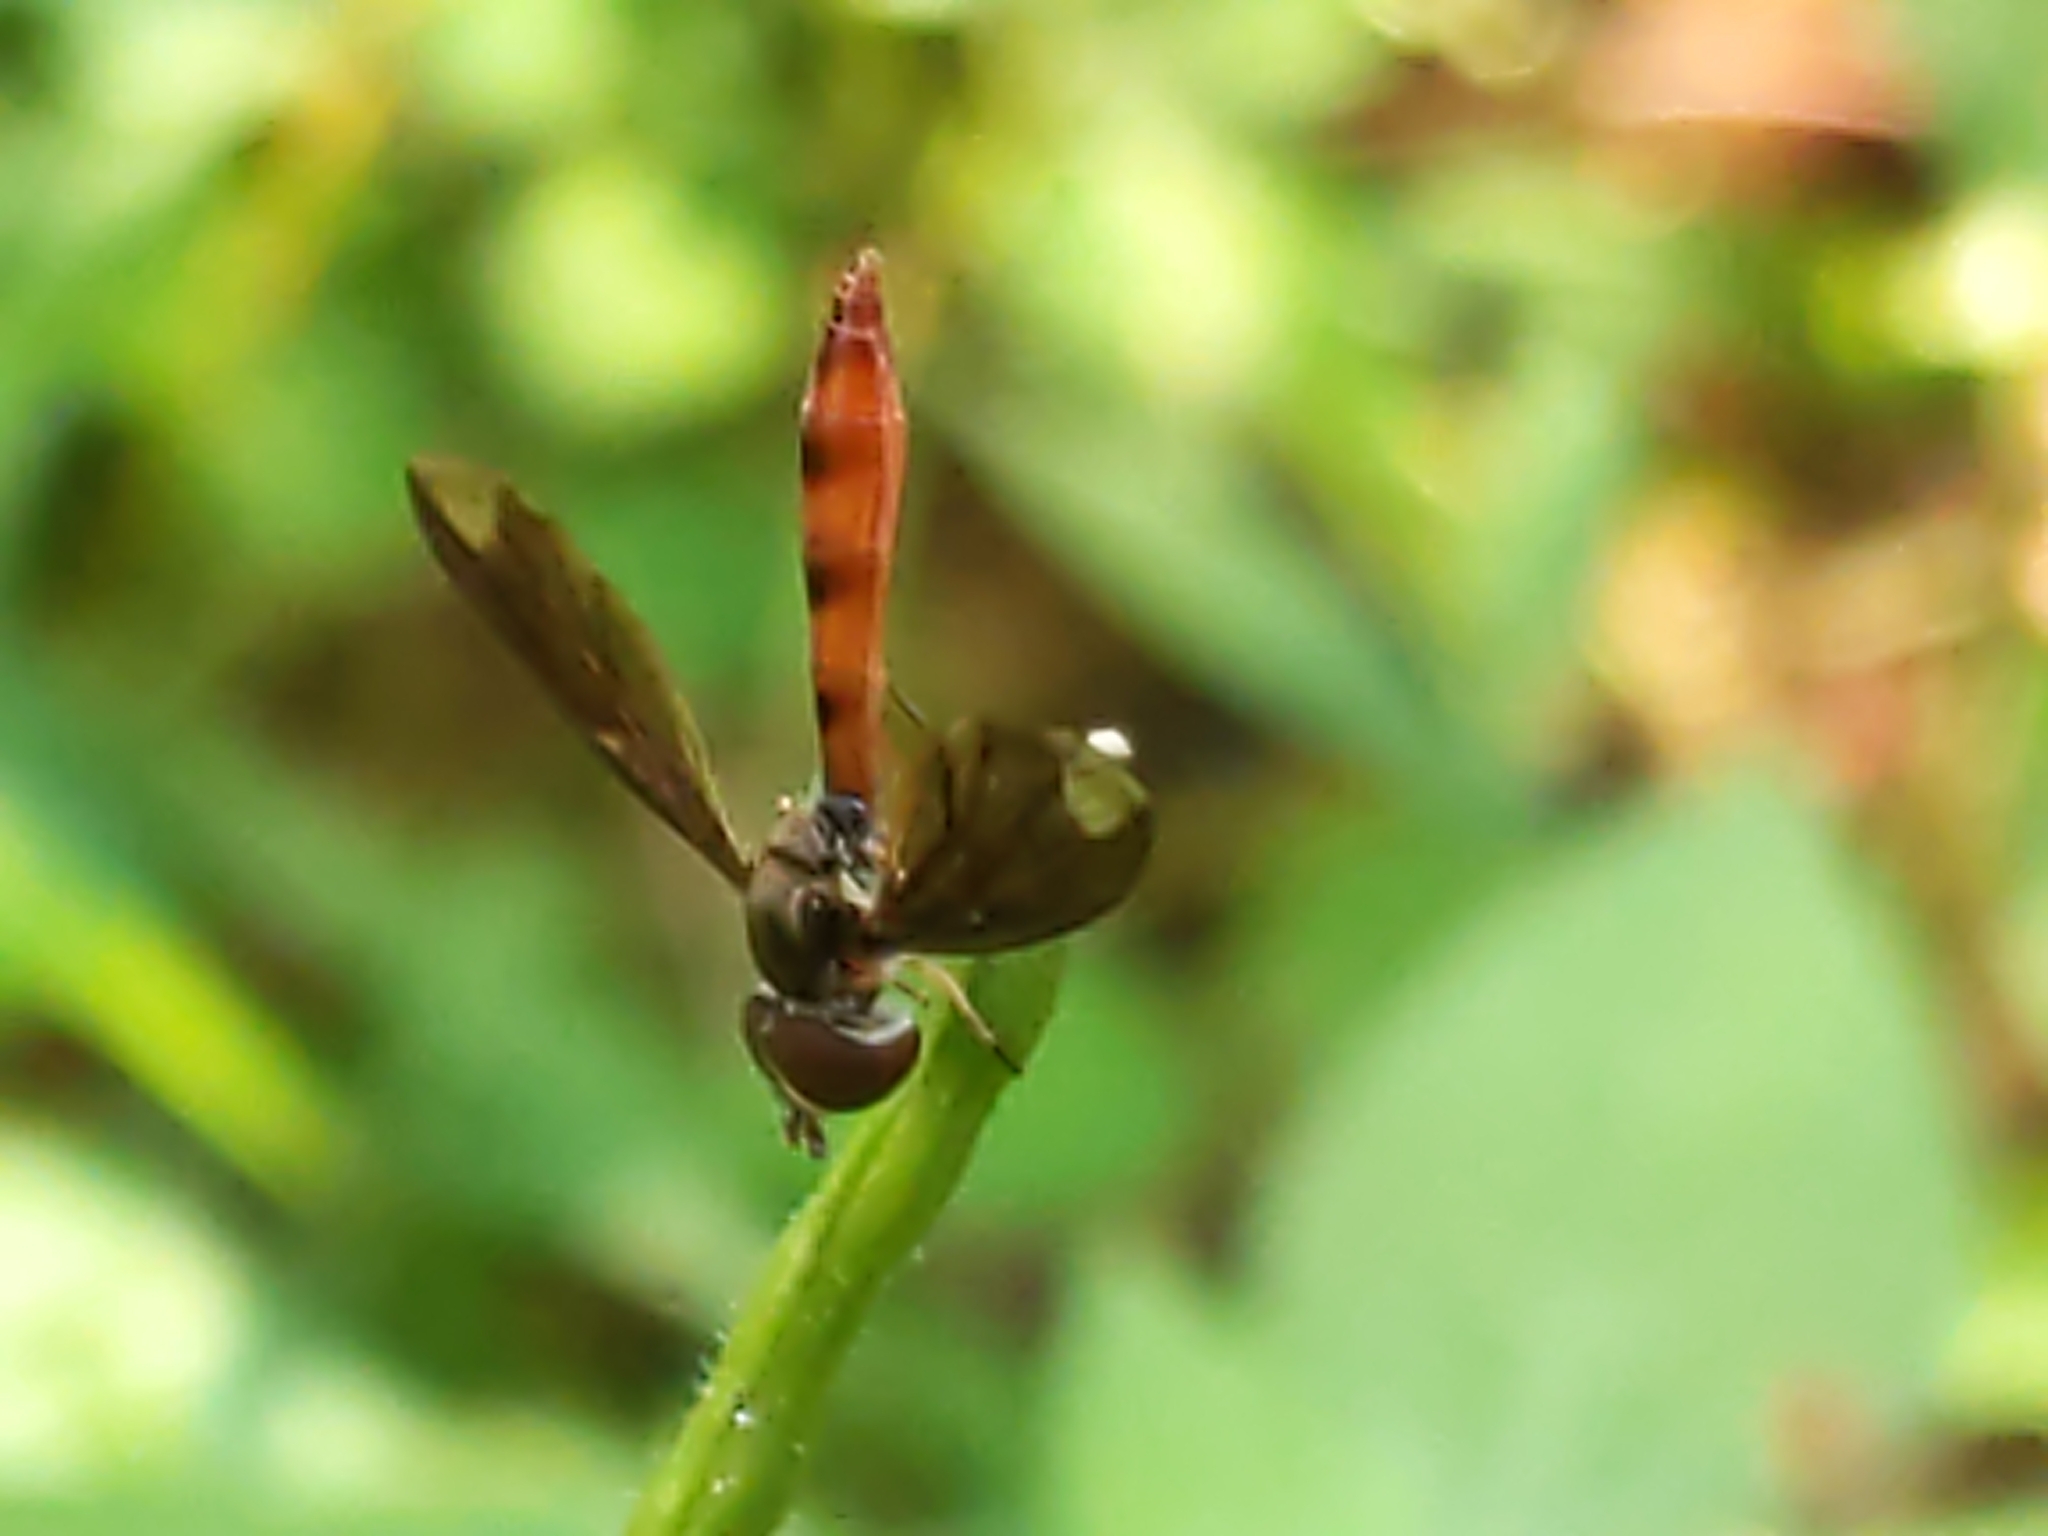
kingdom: Animalia
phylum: Arthropoda
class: Insecta
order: Diptera
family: Syrphidae
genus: Ocyptamus
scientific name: Ocyptamus fuscipennis
